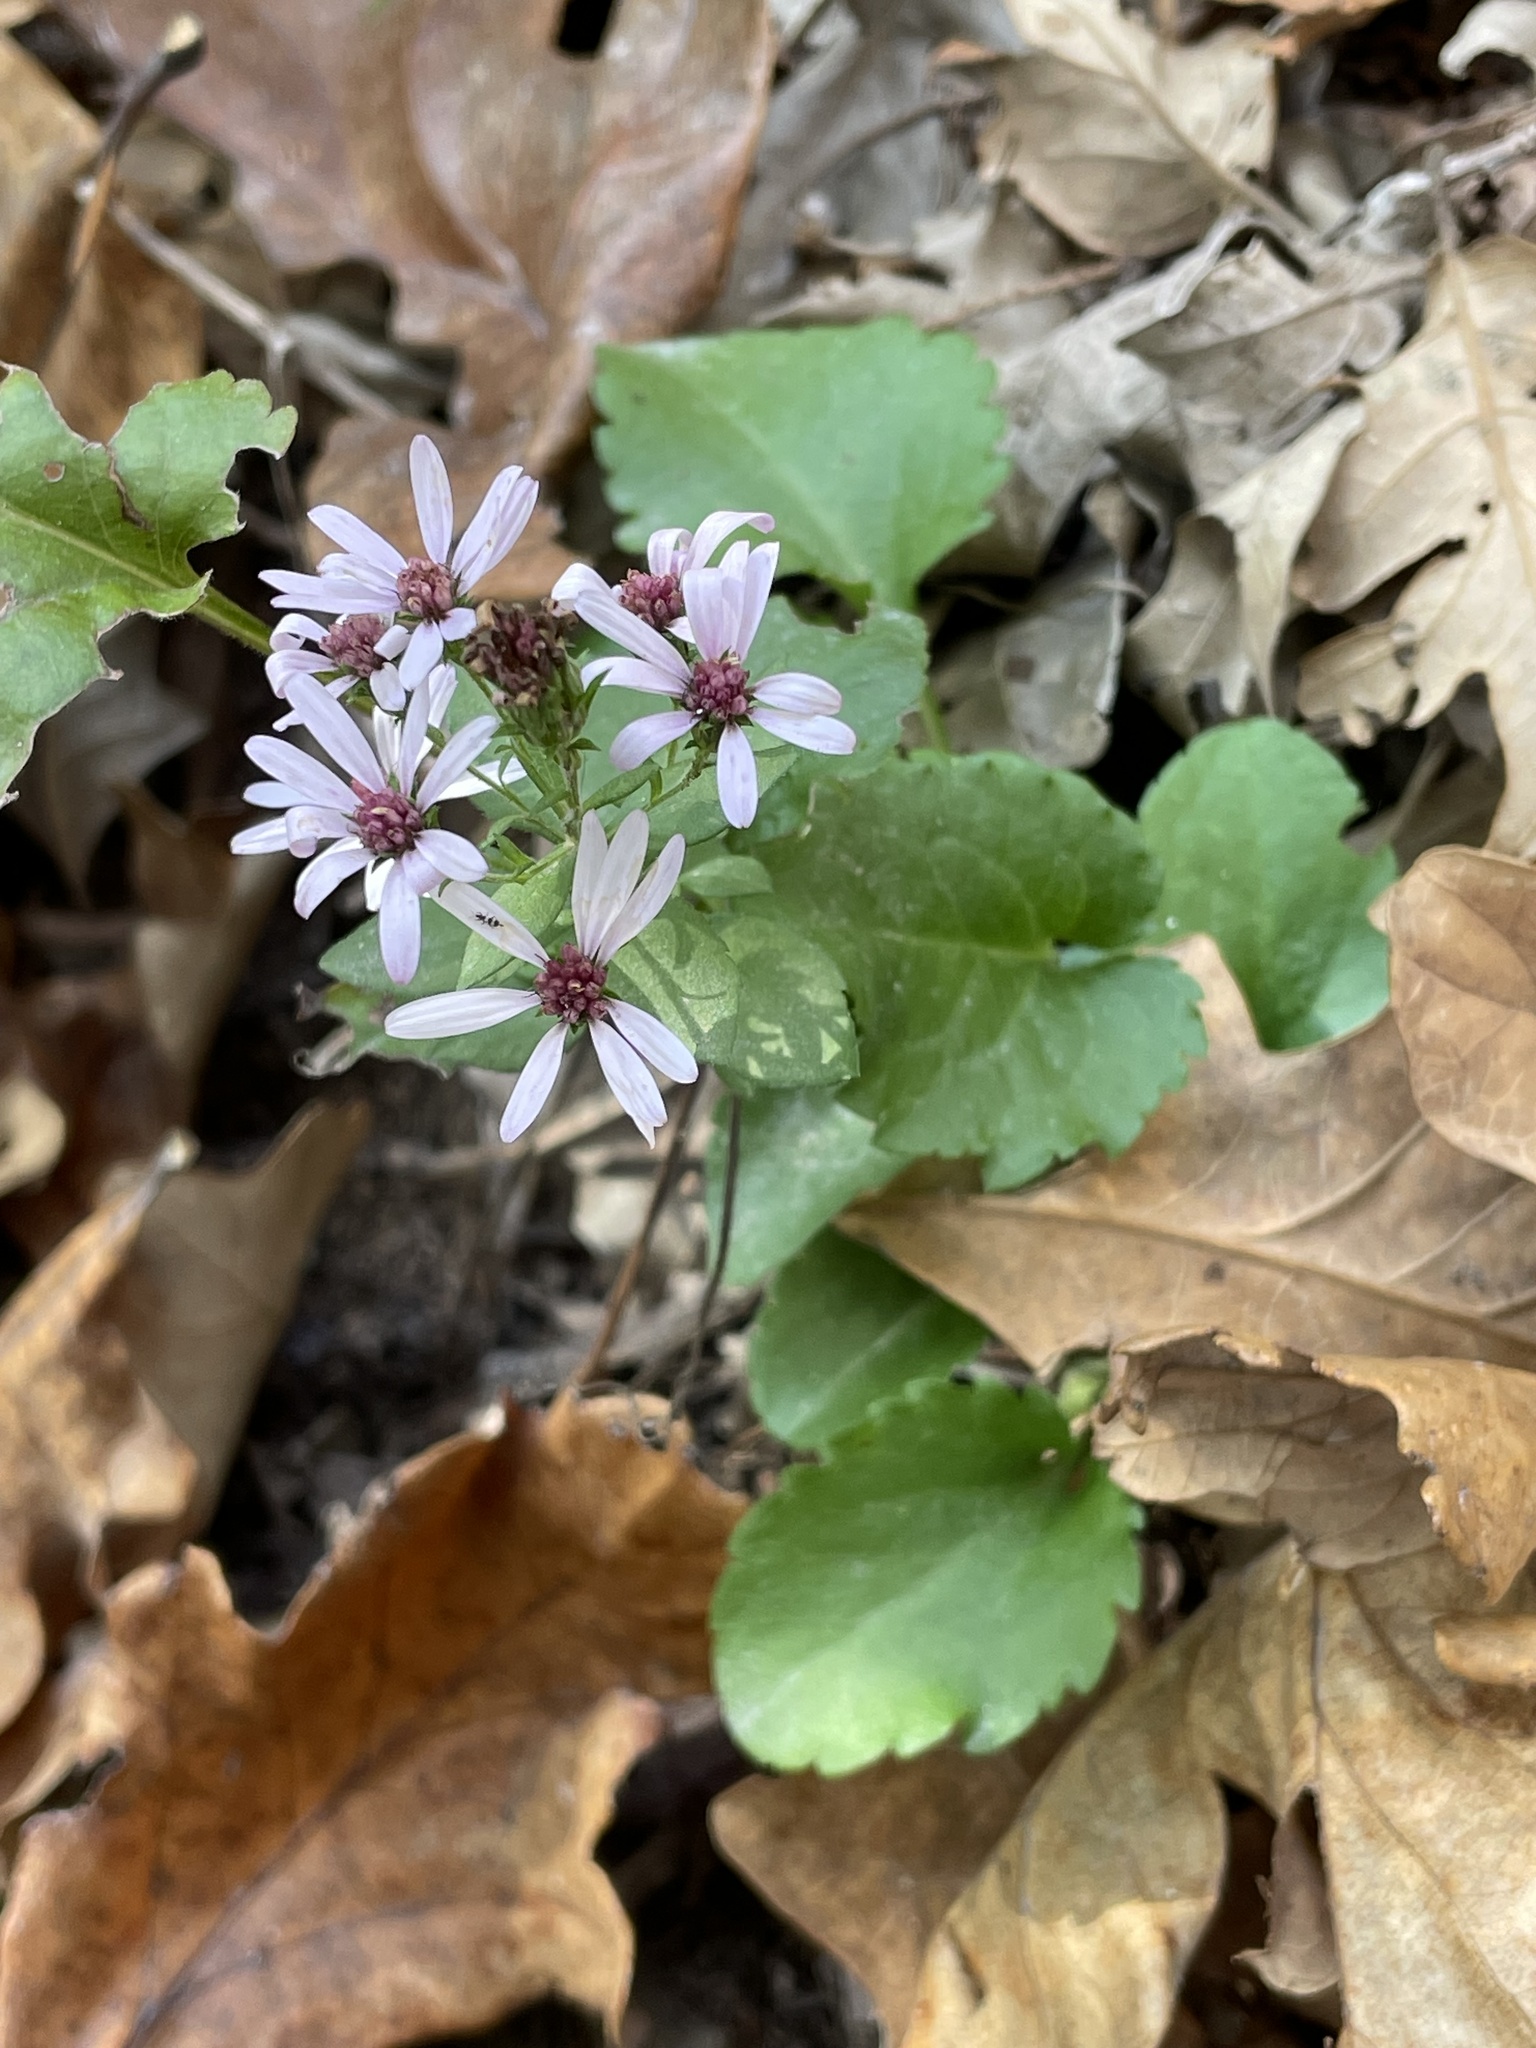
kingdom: Plantae
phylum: Tracheophyta
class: Magnoliopsida
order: Asterales
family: Asteraceae
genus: Symphyotrichum
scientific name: Symphyotrichum drummondii
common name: Drummond's aster
